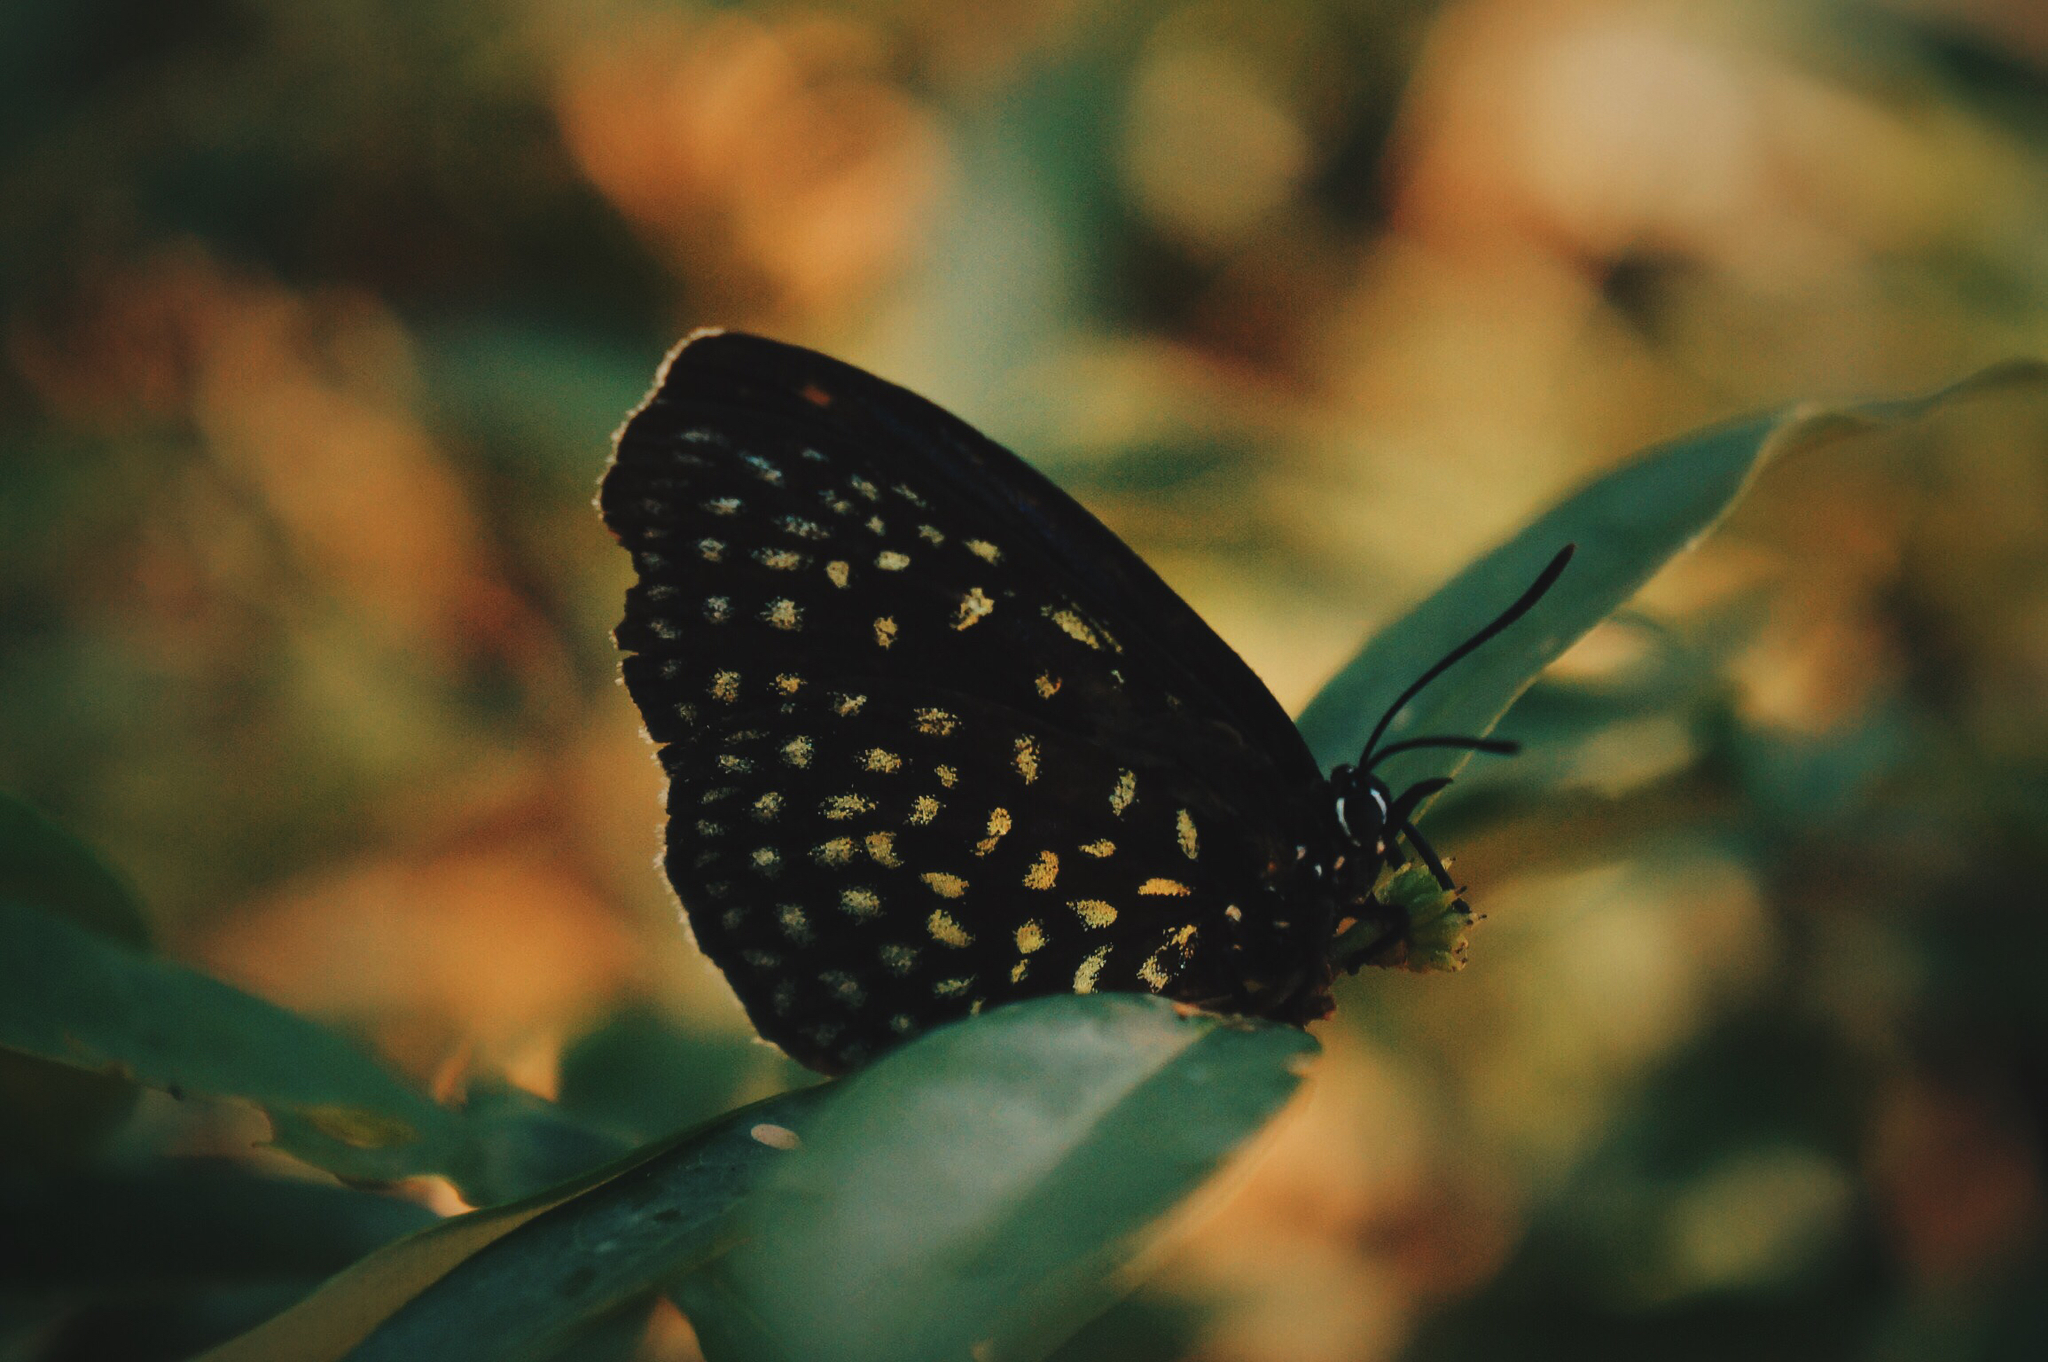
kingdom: Animalia
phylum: Arthropoda
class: Insecta
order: Lepidoptera
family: Lycaenidae
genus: Eumaeus
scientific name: Eumaeus childrenae
